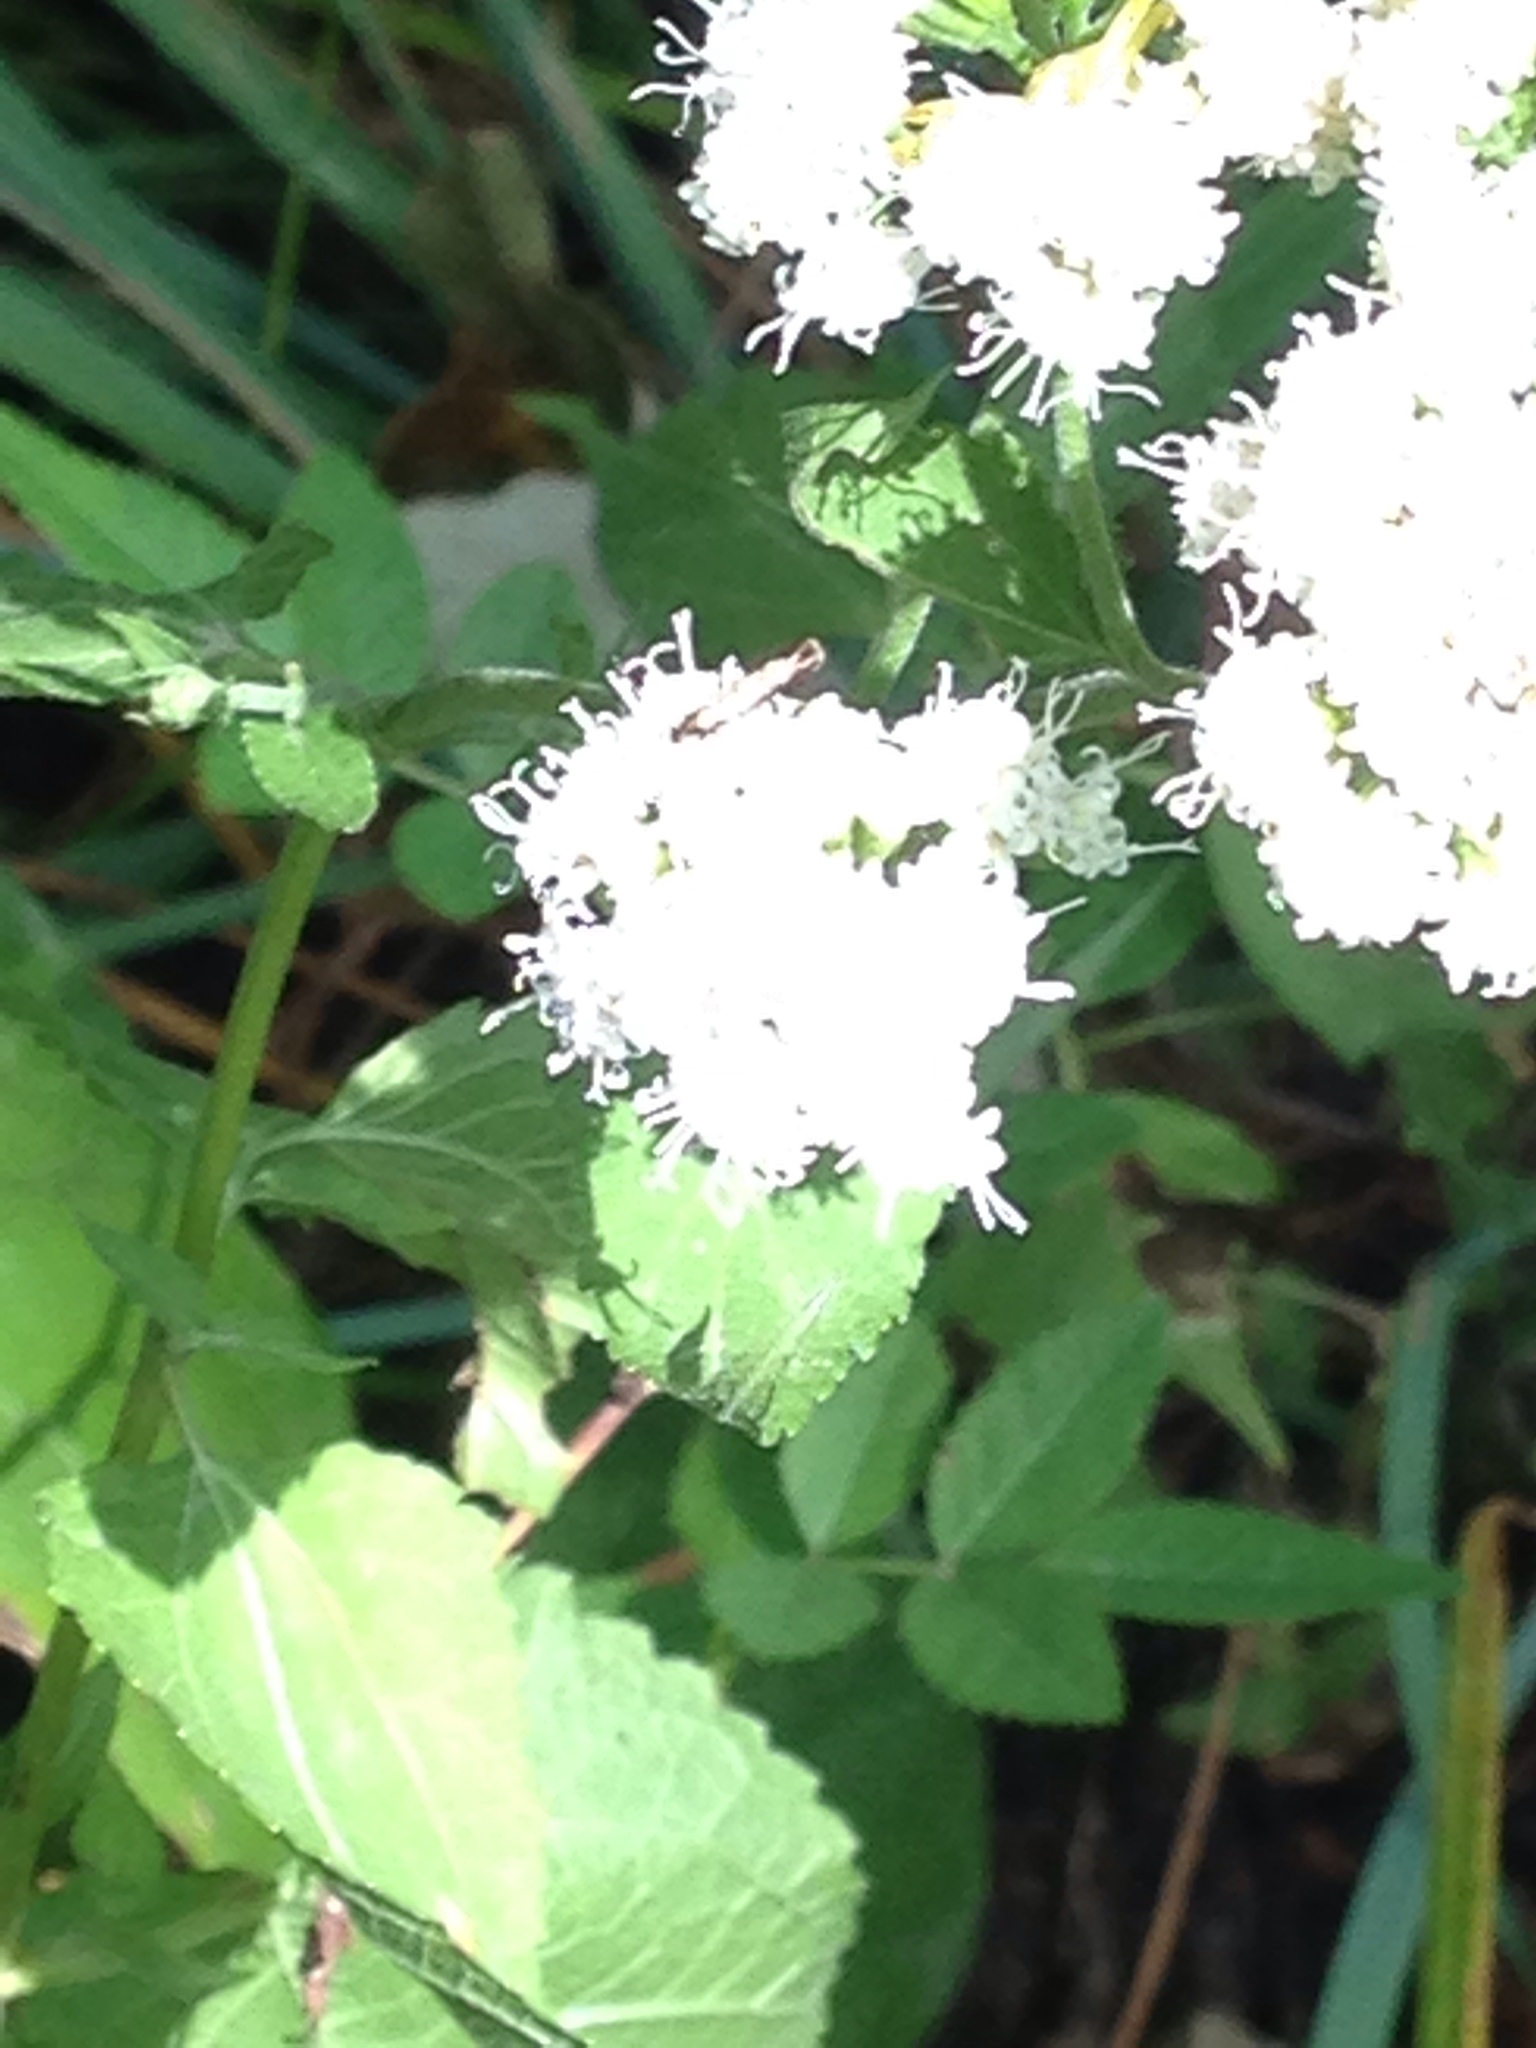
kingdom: Plantae
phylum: Tracheophyta
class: Magnoliopsida
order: Asterales
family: Asteraceae
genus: Ageratina
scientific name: Ageratina altissima
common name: White snakeroot
